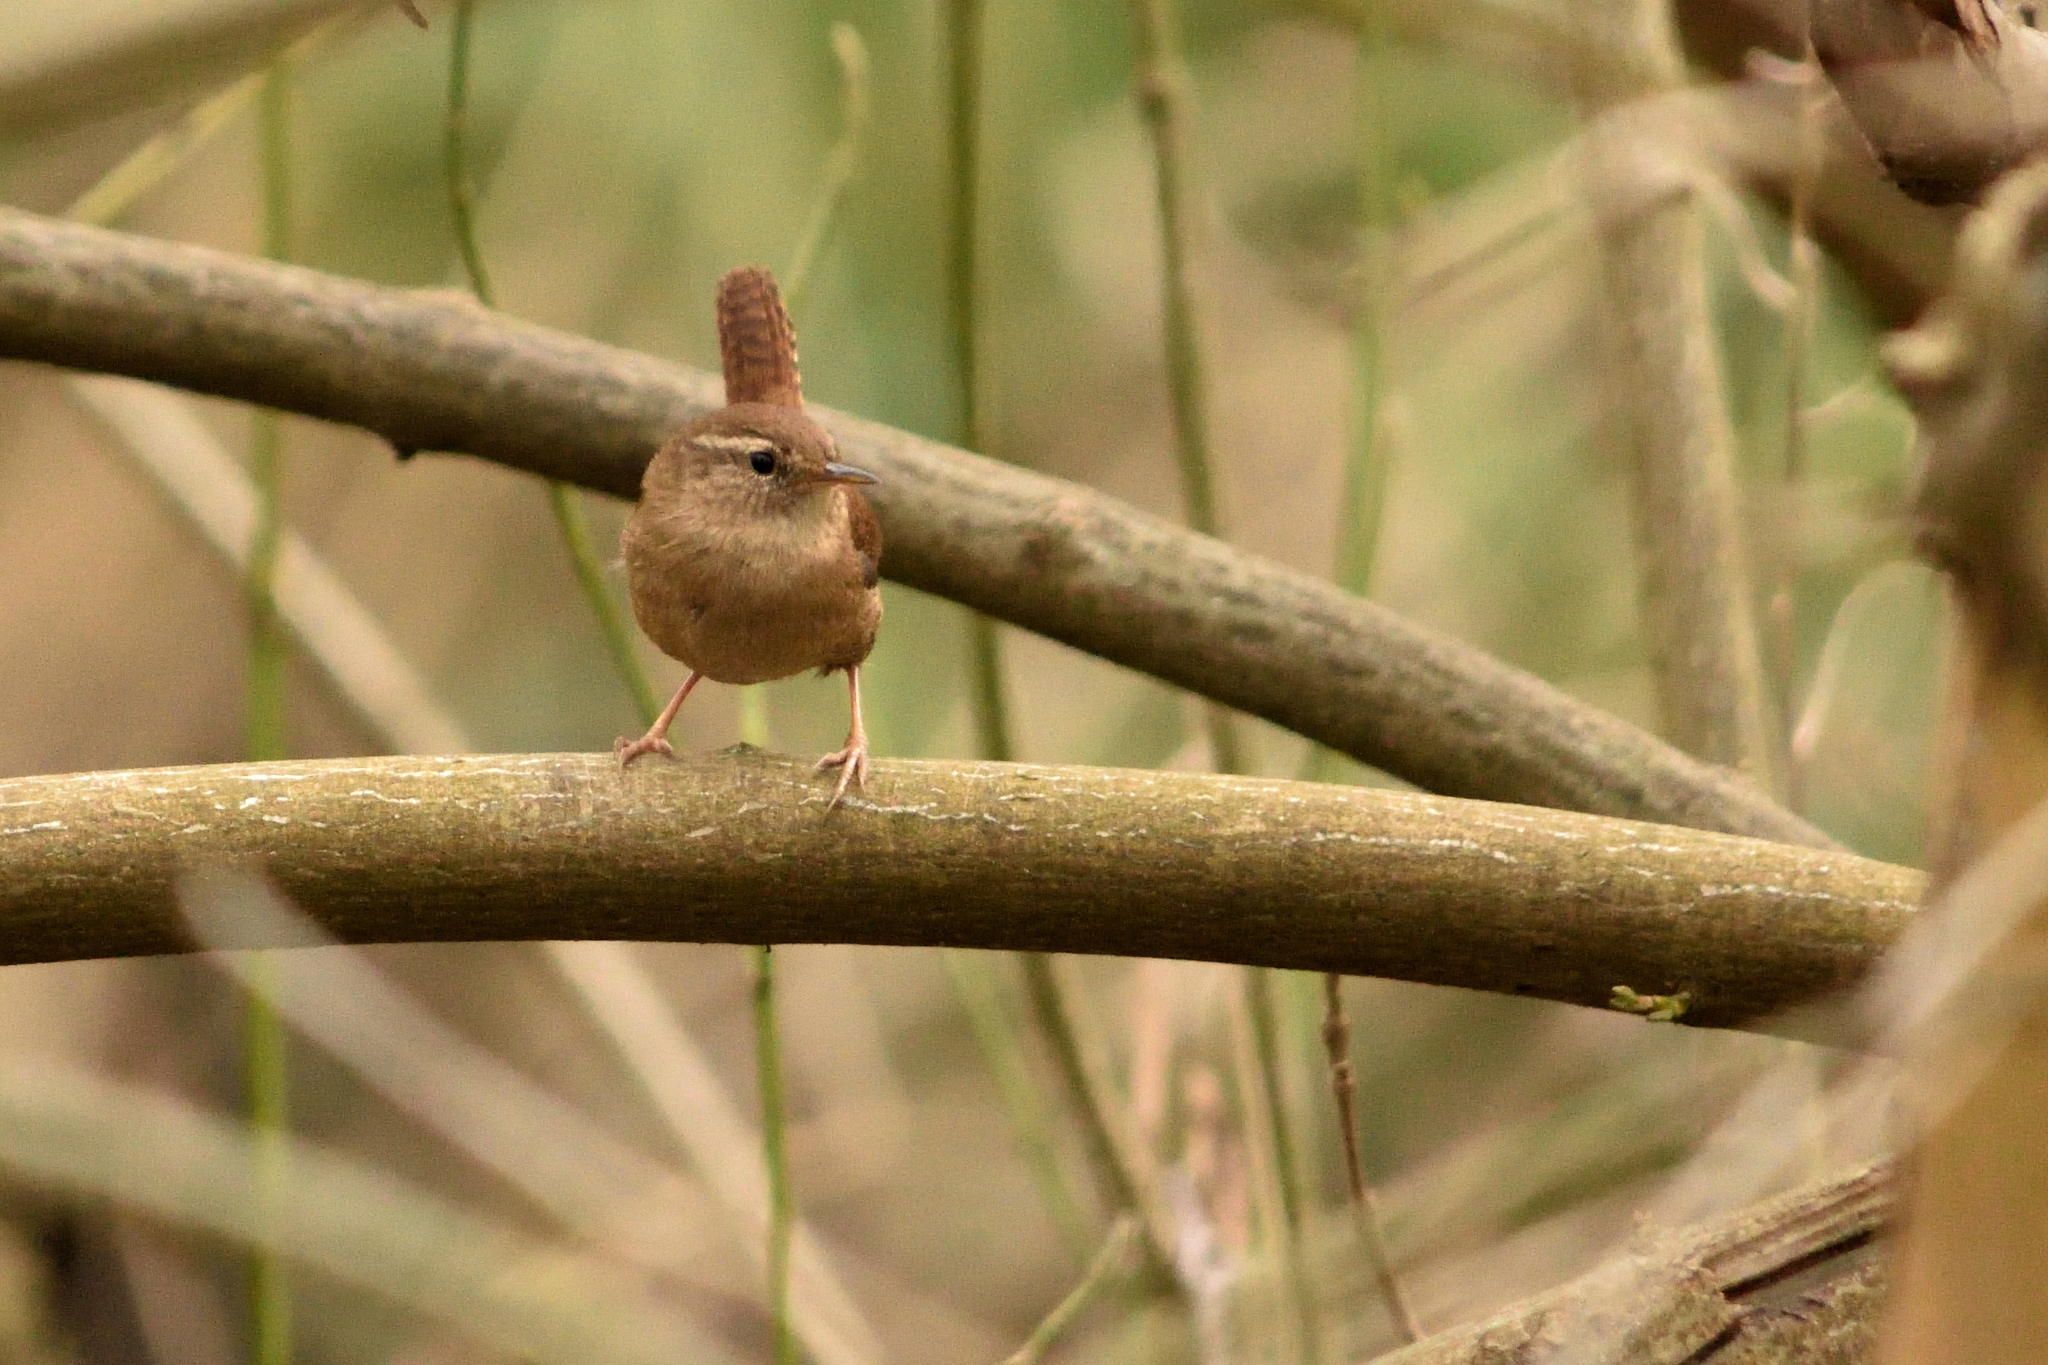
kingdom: Animalia
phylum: Chordata
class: Aves
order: Passeriformes
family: Troglodytidae
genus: Troglodytes
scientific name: Troglodytes troglodytes
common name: Eurasian wren
